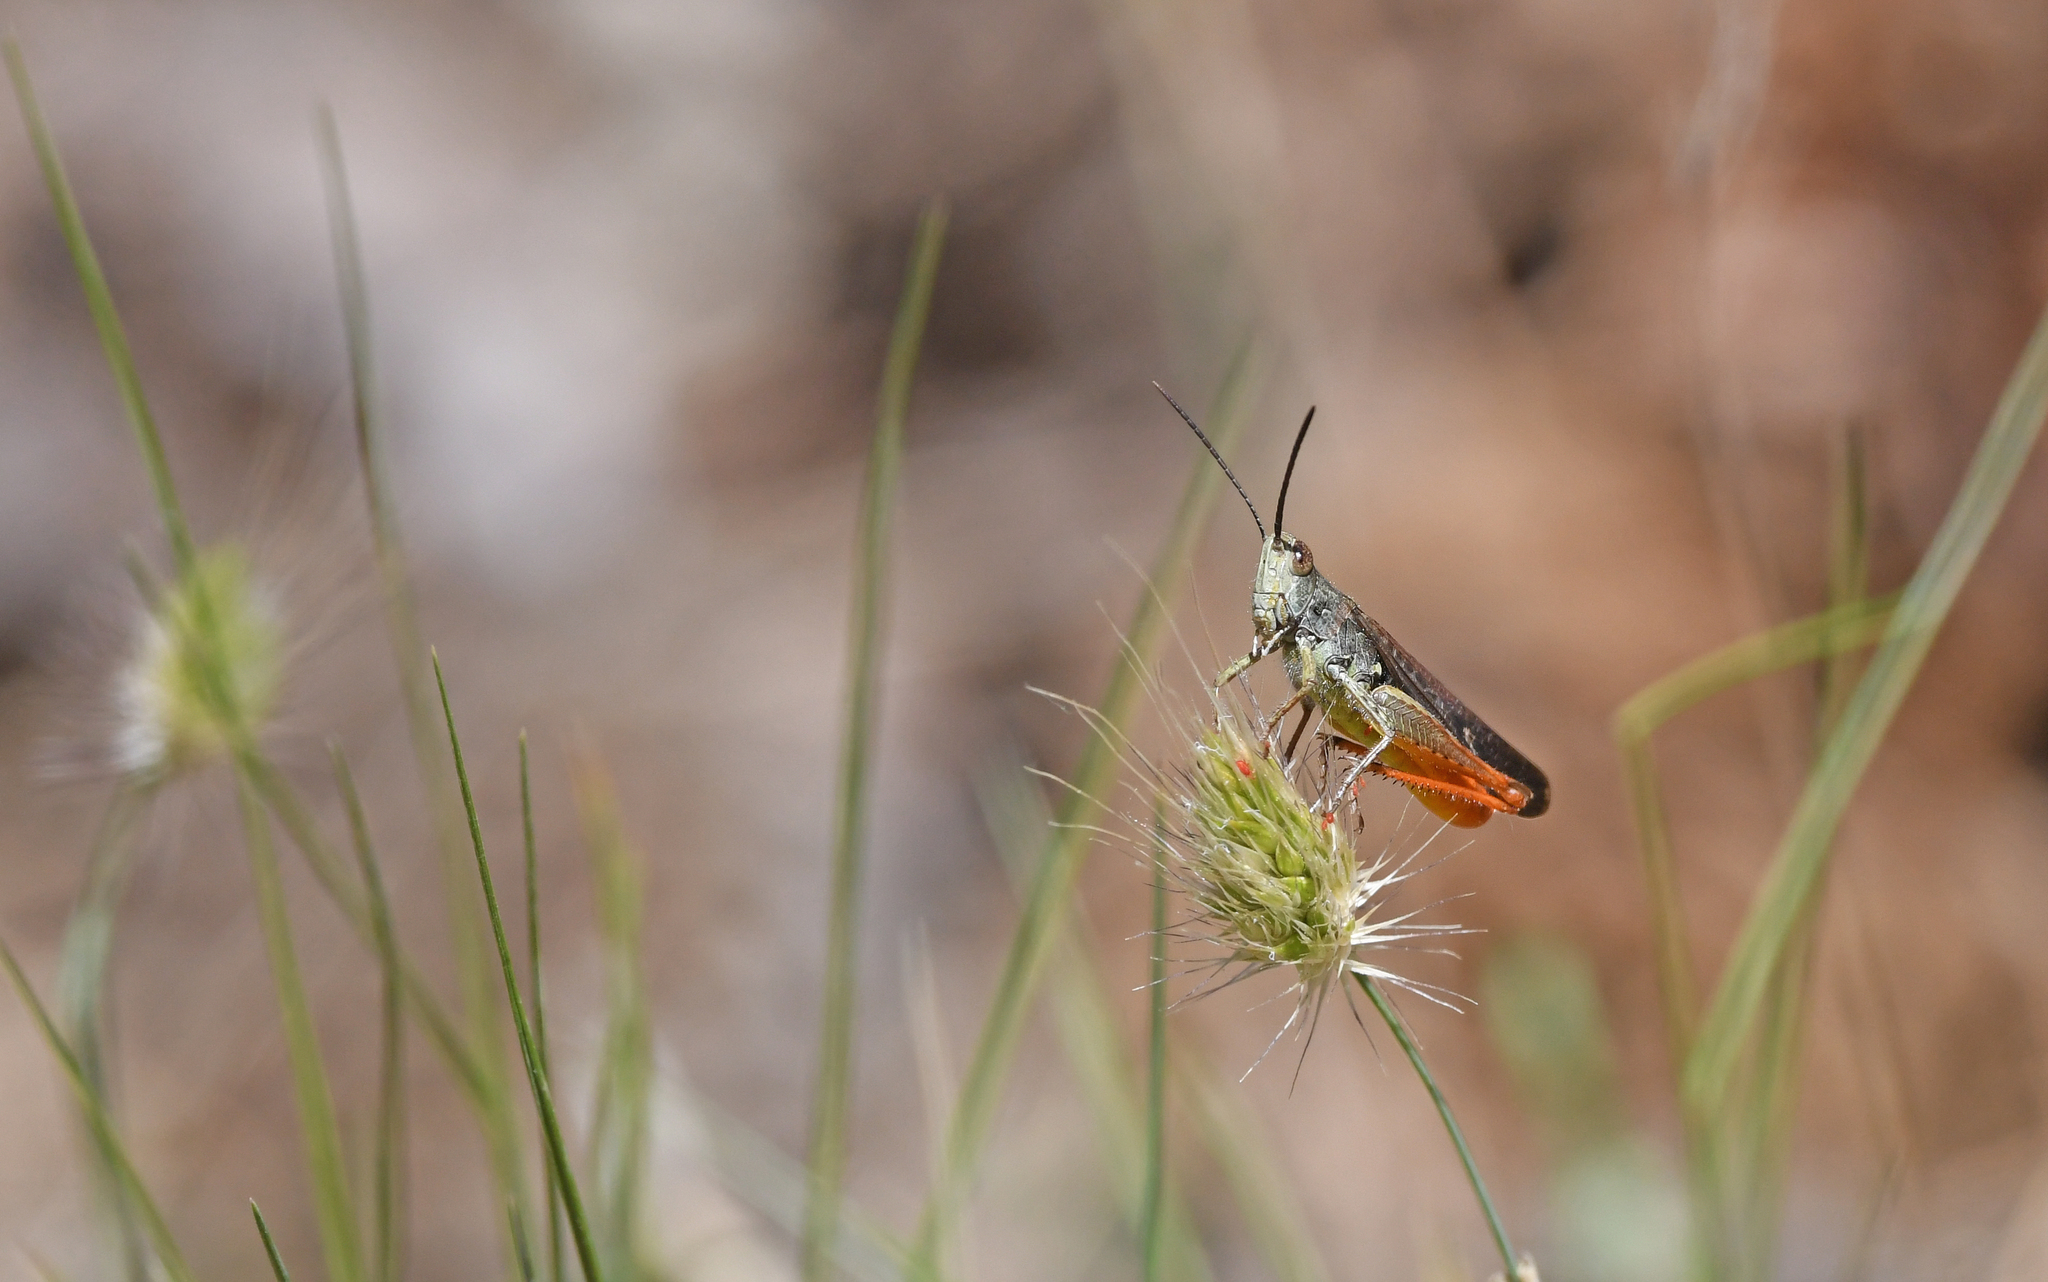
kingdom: Animalia
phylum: Arthropoda
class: Insecta
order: Orthoptera
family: Acrididae
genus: Chorthippus
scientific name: Chorthippus brunneus
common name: Field grasshopper
